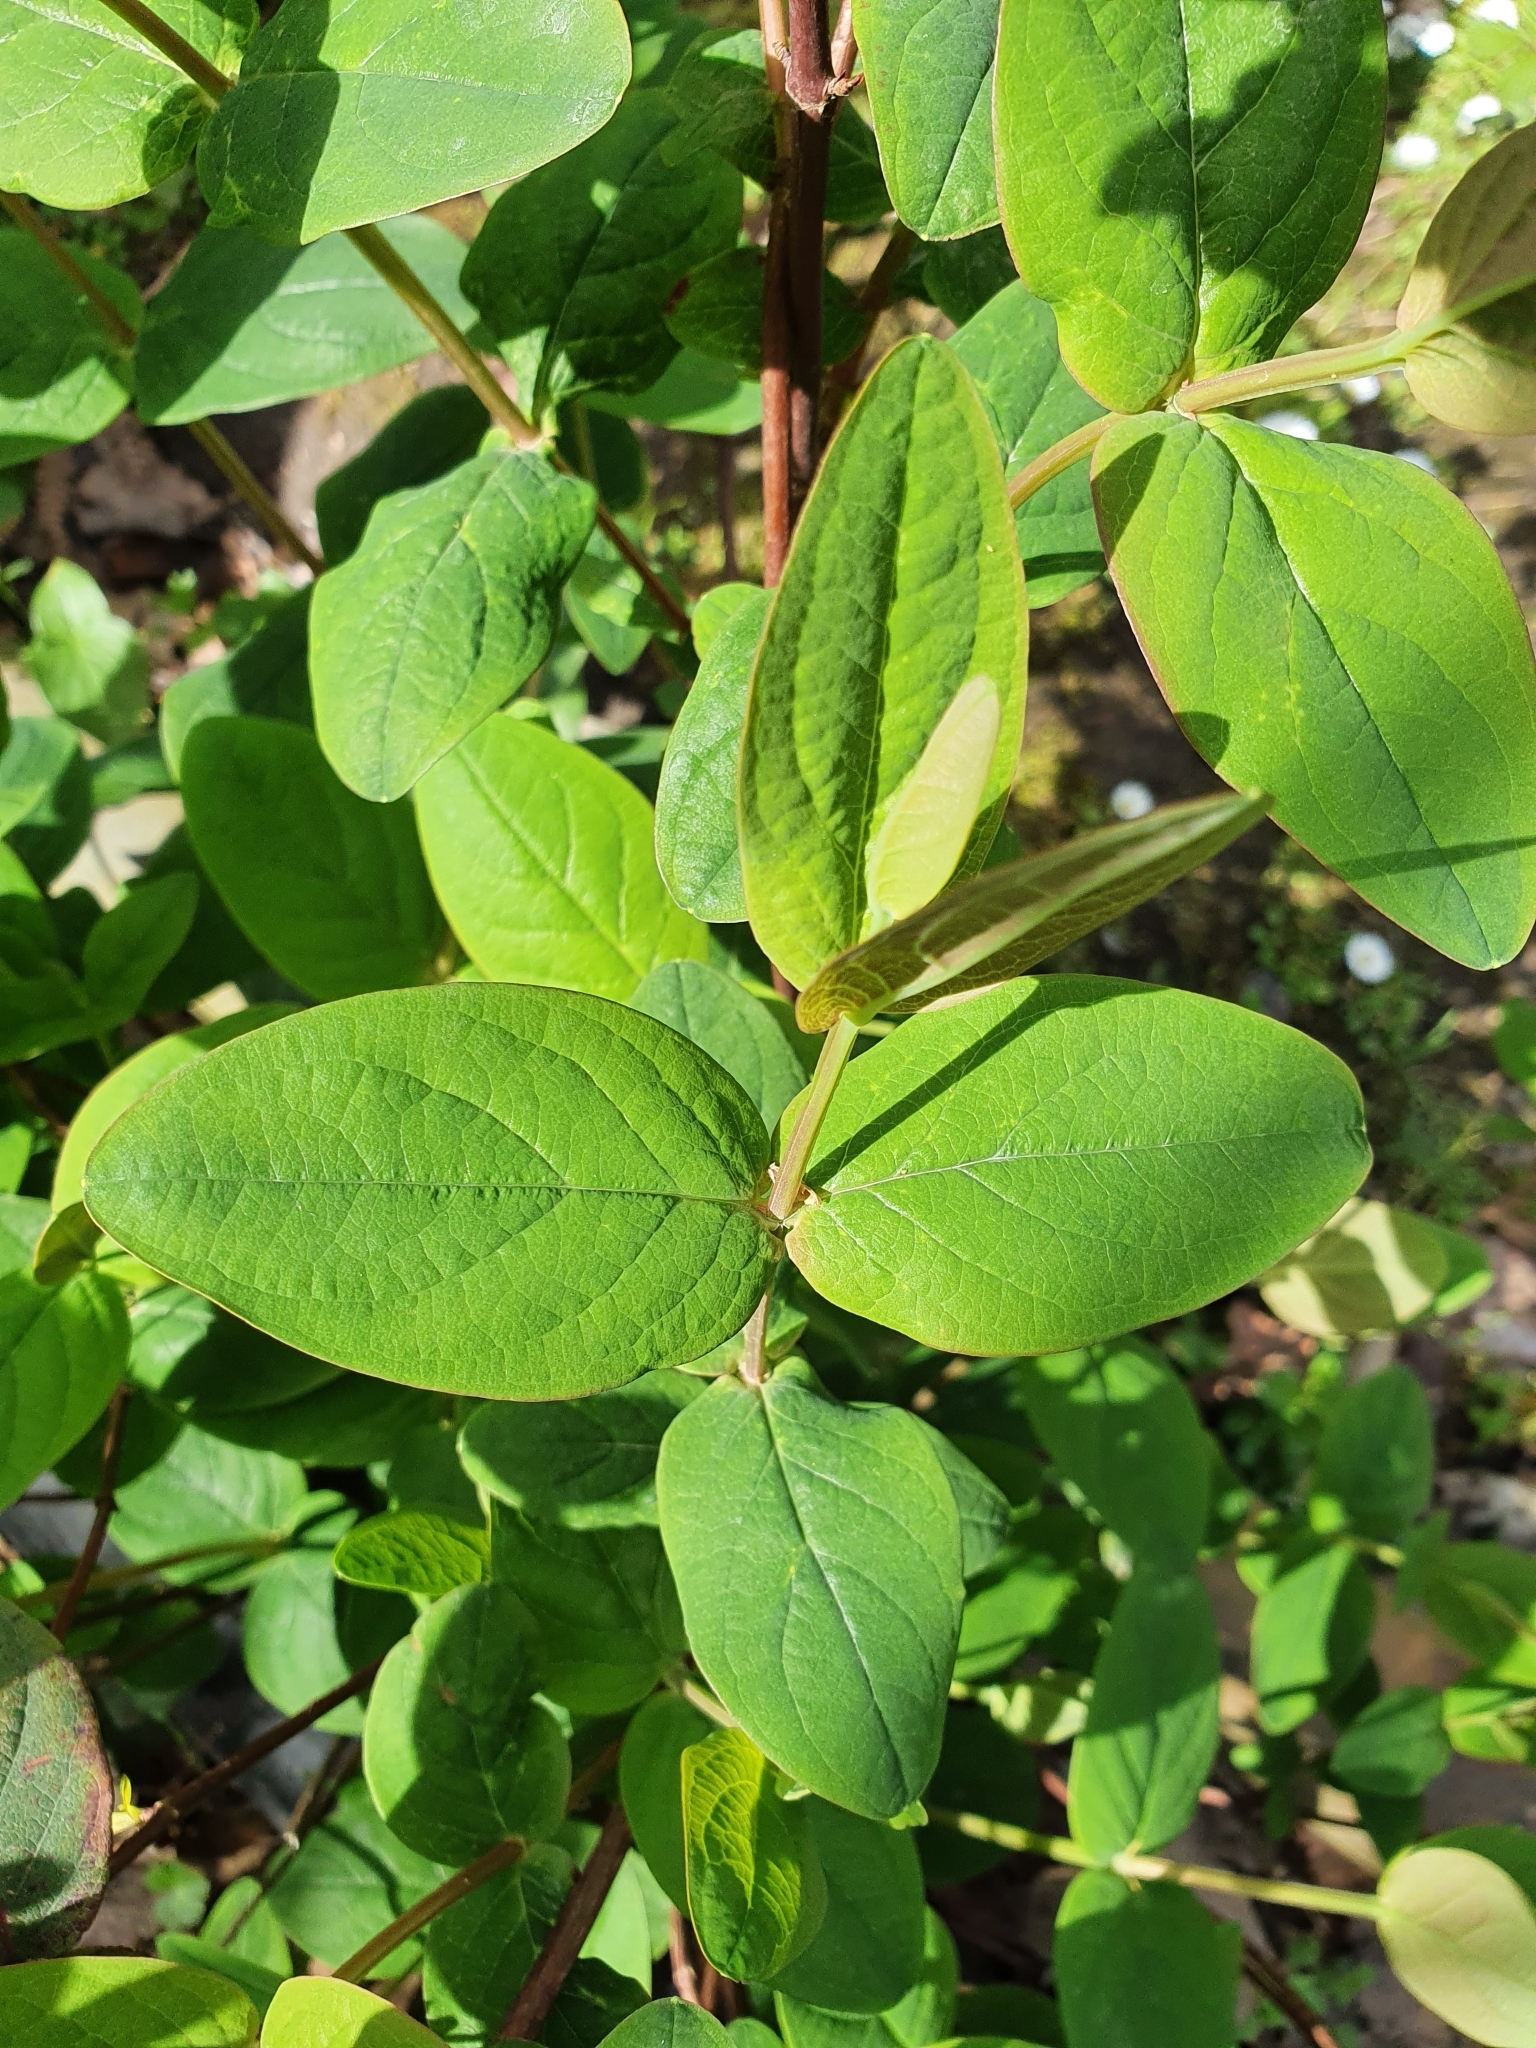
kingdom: Plantae
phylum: Tracheophyta
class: Magnoliopsida
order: Malpighiales
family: Hypericaceae
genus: Hypericum
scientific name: Hypericum androsaemum
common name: Sweet-amber
